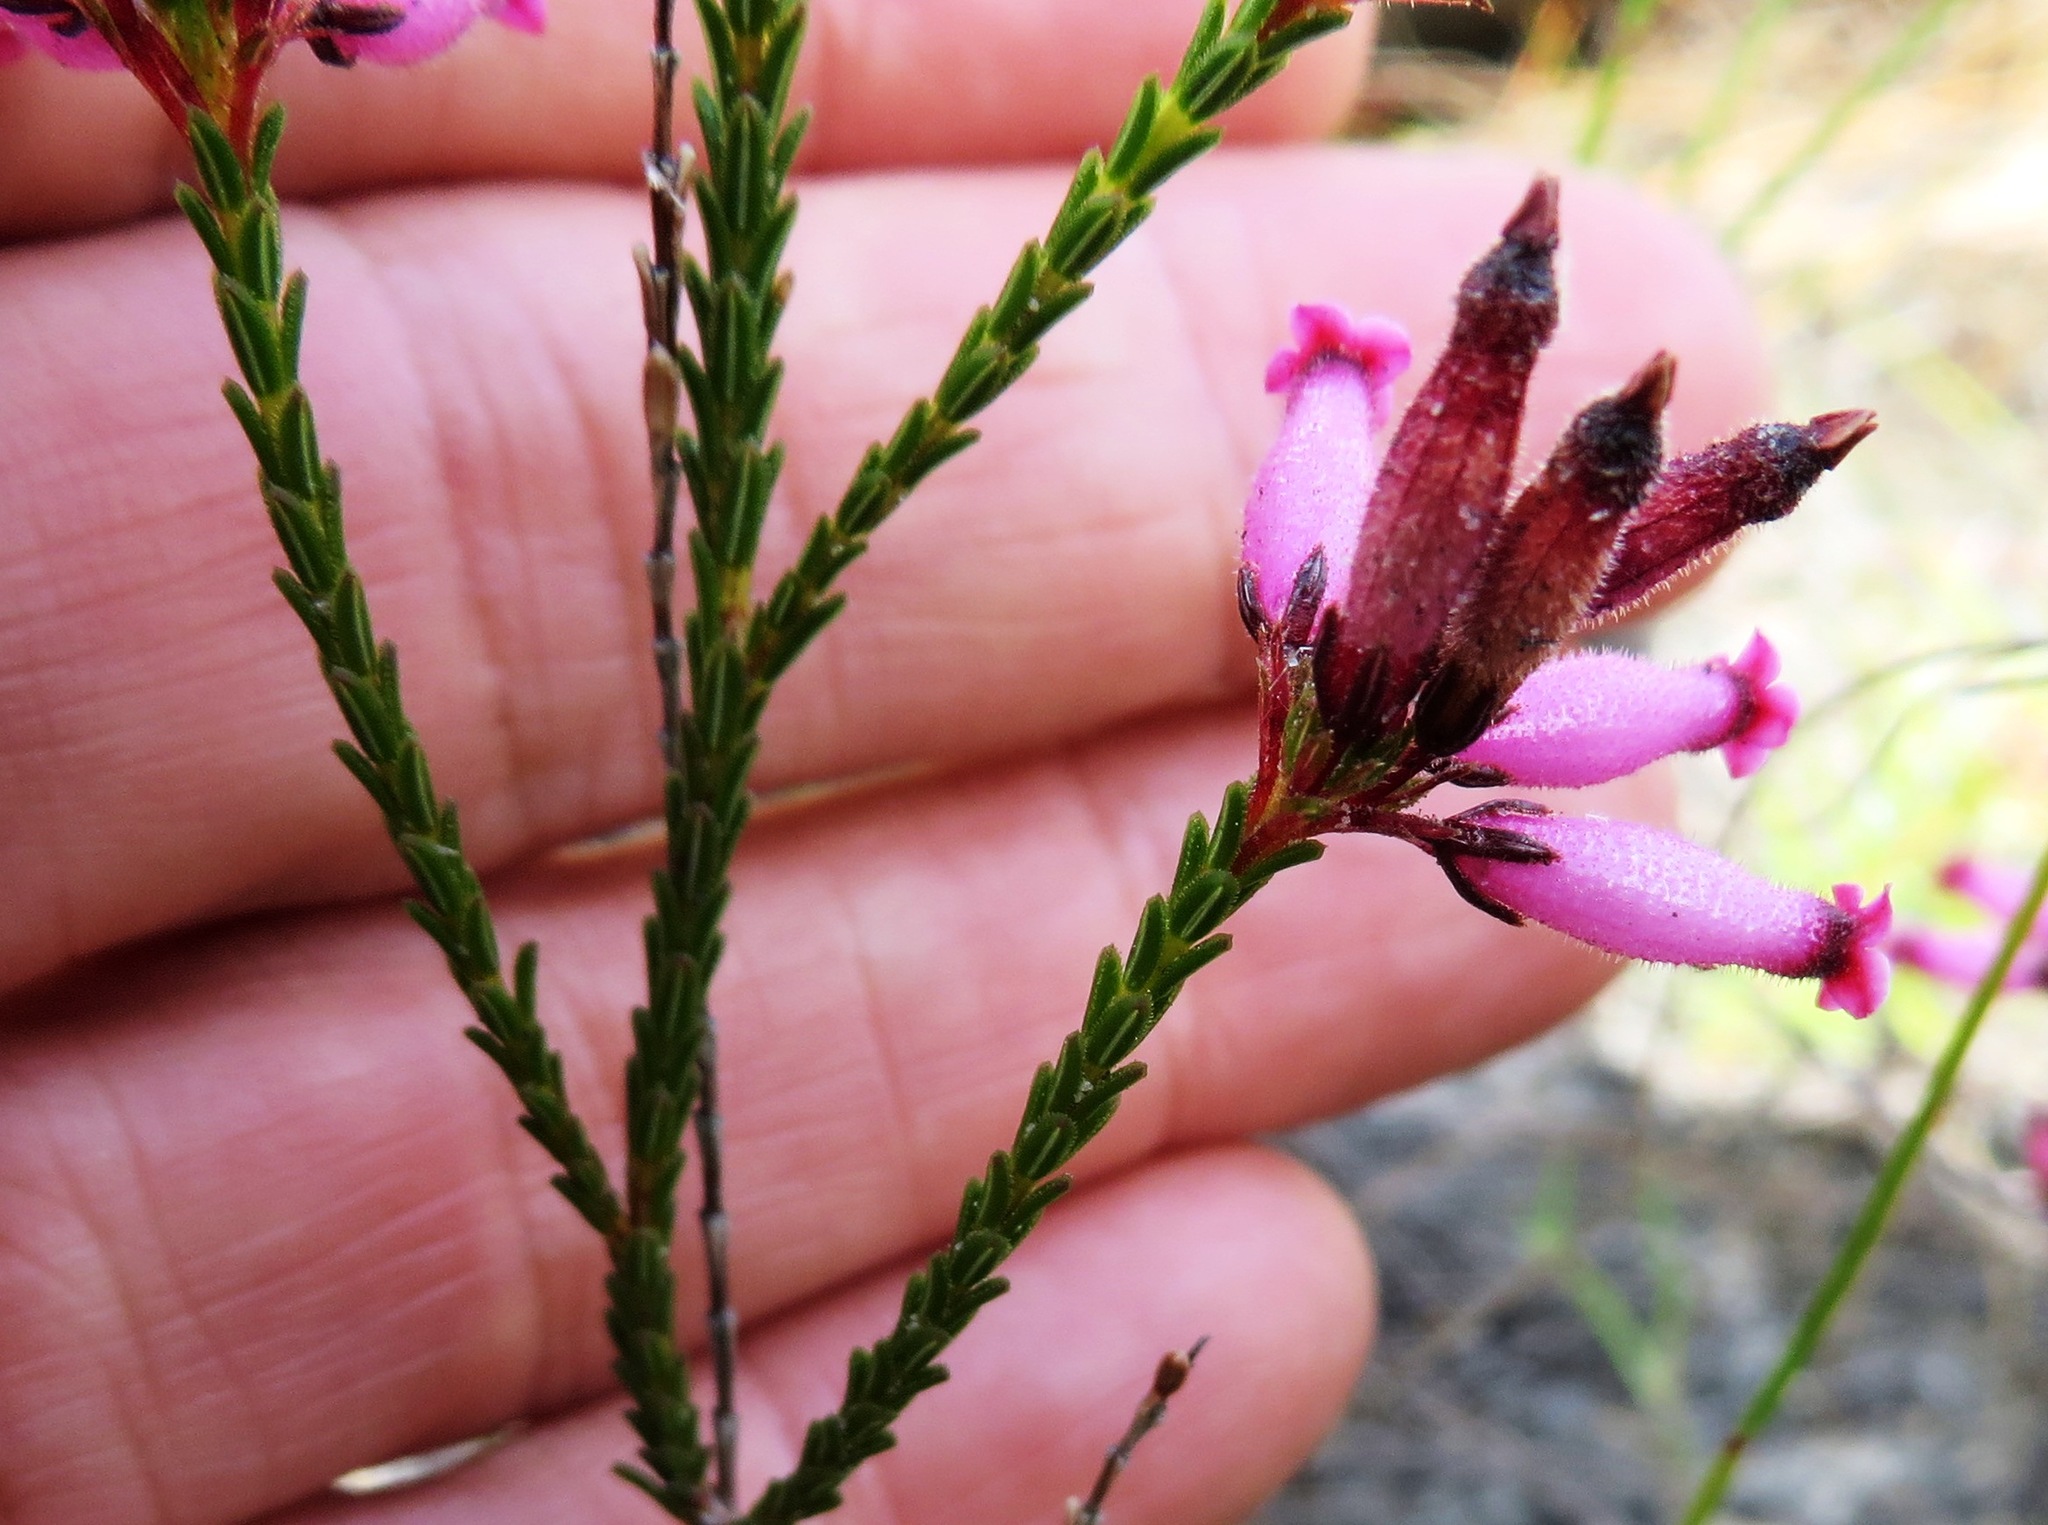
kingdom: Plantae
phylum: Tracheophyta
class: Magnoliopsida
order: Ericales
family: Ericaceae
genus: Erica
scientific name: Erica cristata
